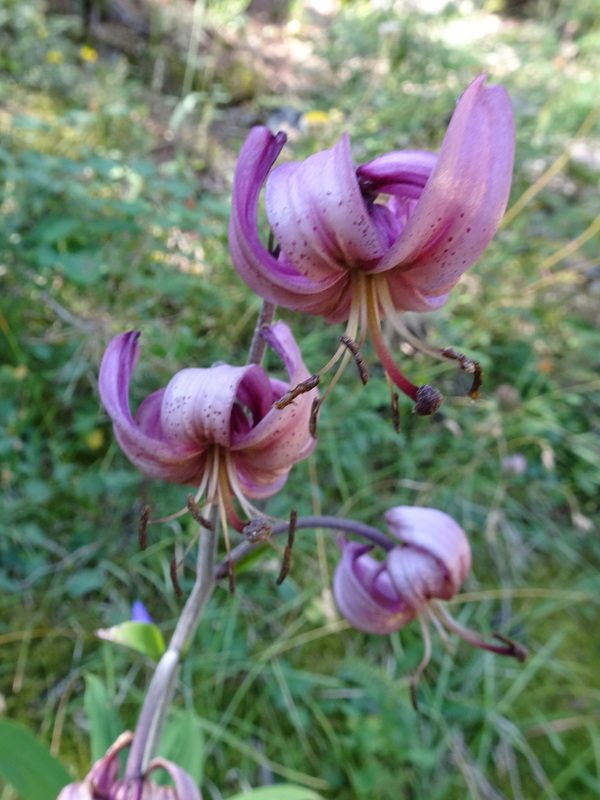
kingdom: Plantae
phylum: Tracheophyta
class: Liliopsida
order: Liliales
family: Liliaceae
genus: Lilium
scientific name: Lilium martagon
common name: Martagon lily
